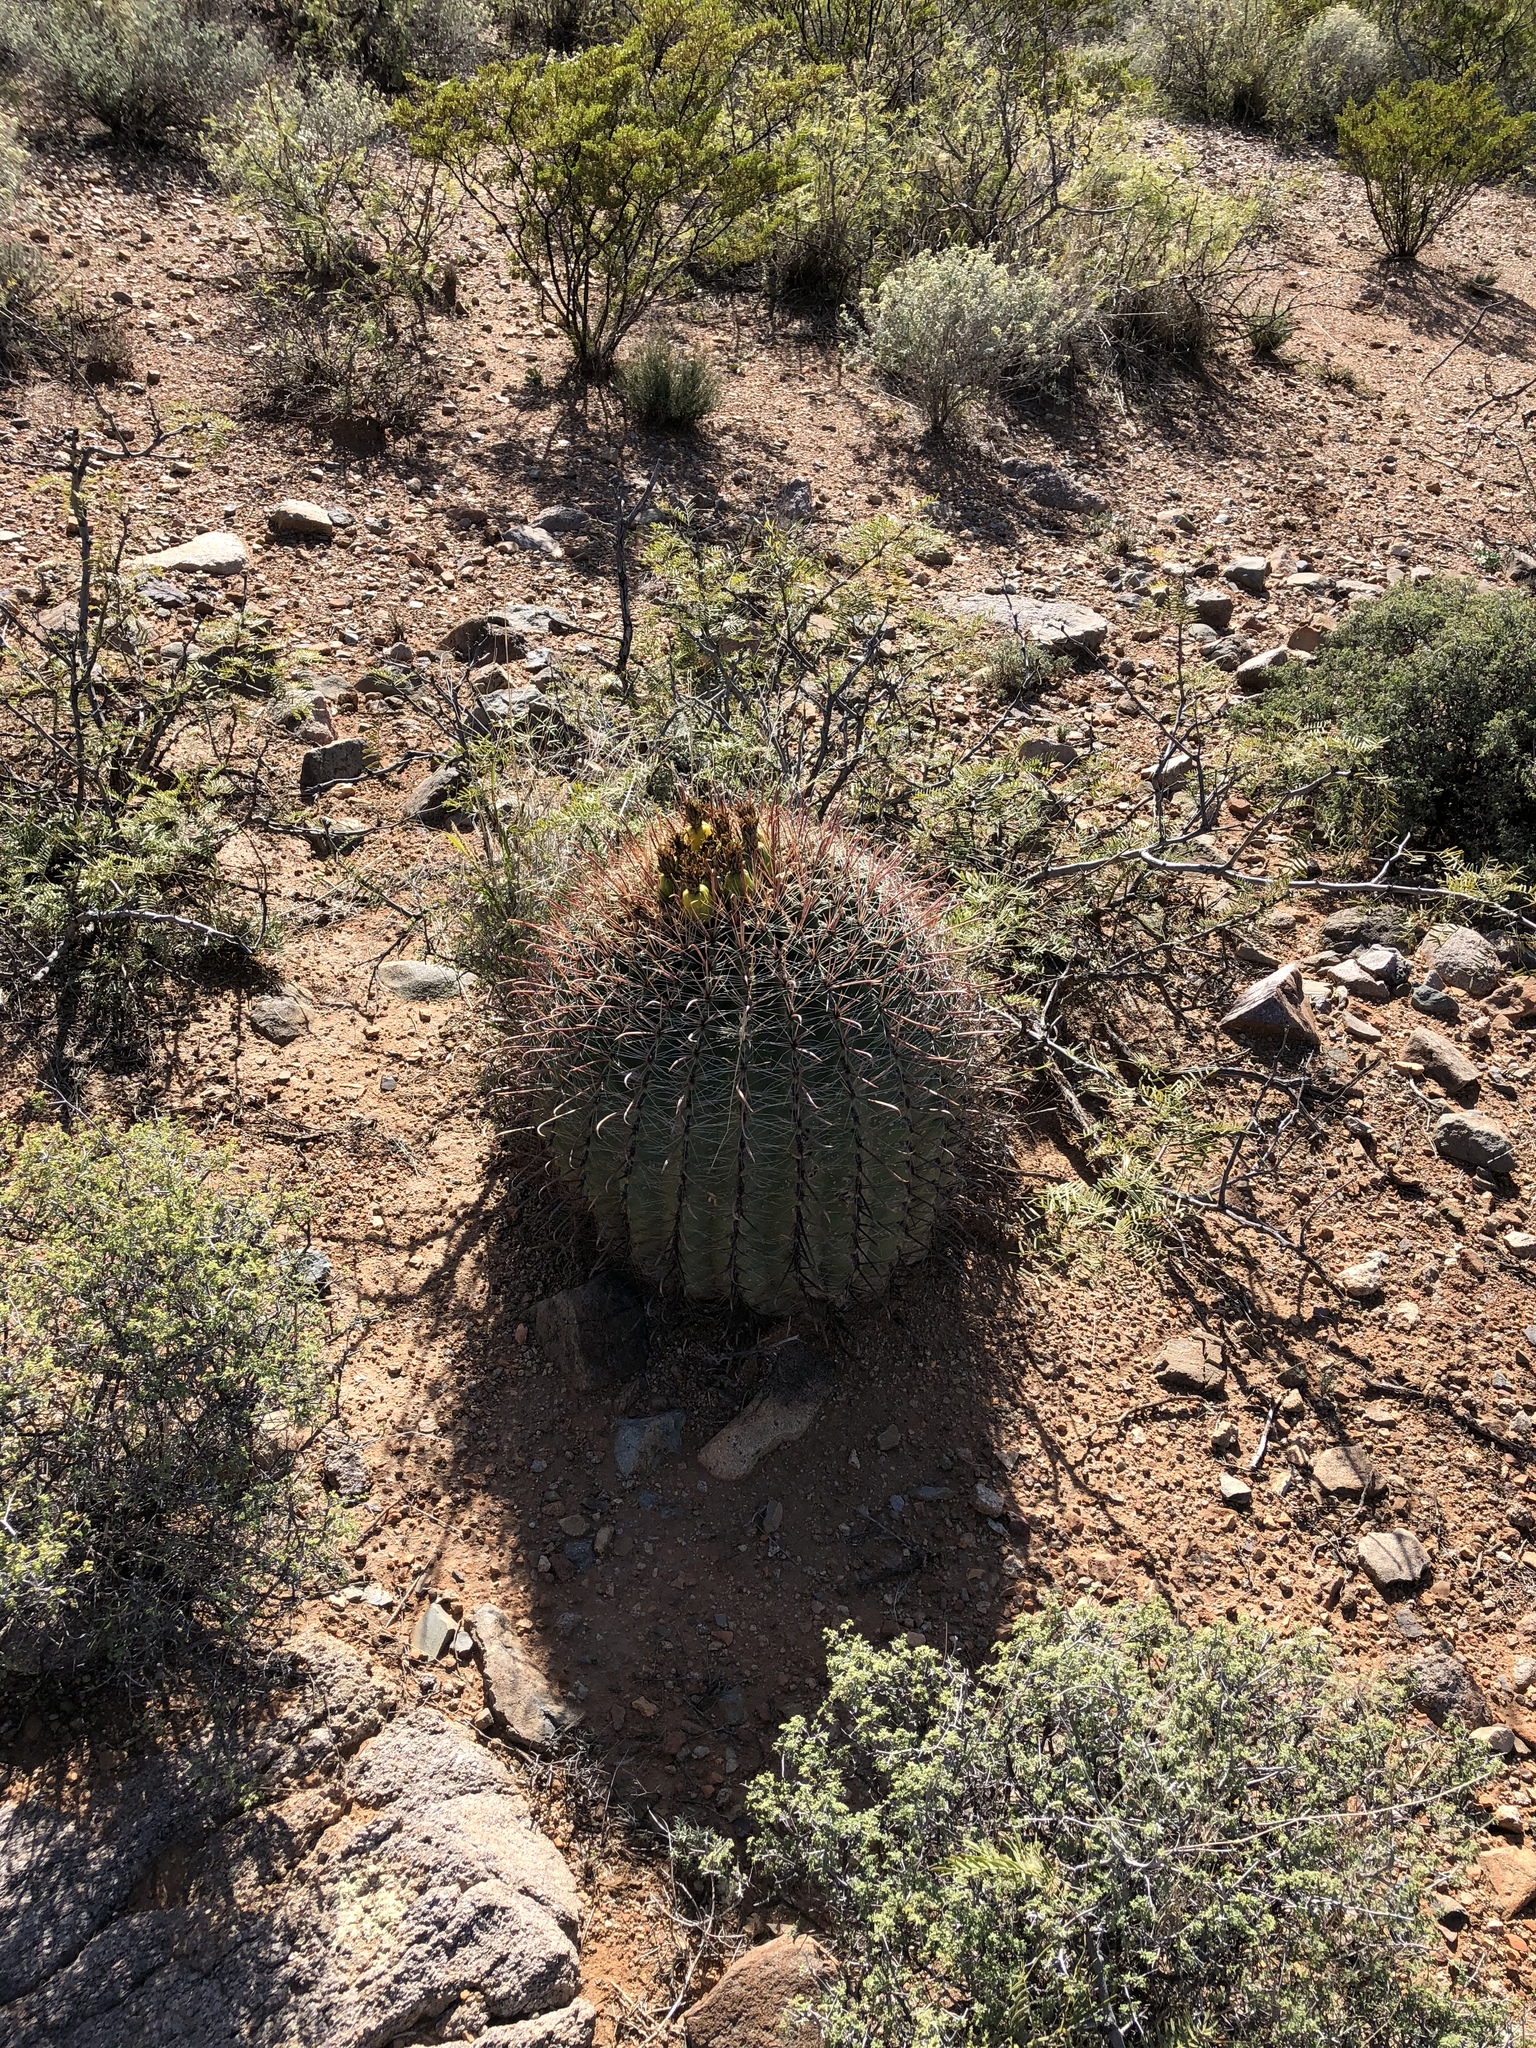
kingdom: Plantae
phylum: Tracheophyta
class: Magnoliopsida
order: Caryophyllales
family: Cactaceae
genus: Ferocactus
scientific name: Ferocactus wislizeni
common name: Candy barrel cactus
